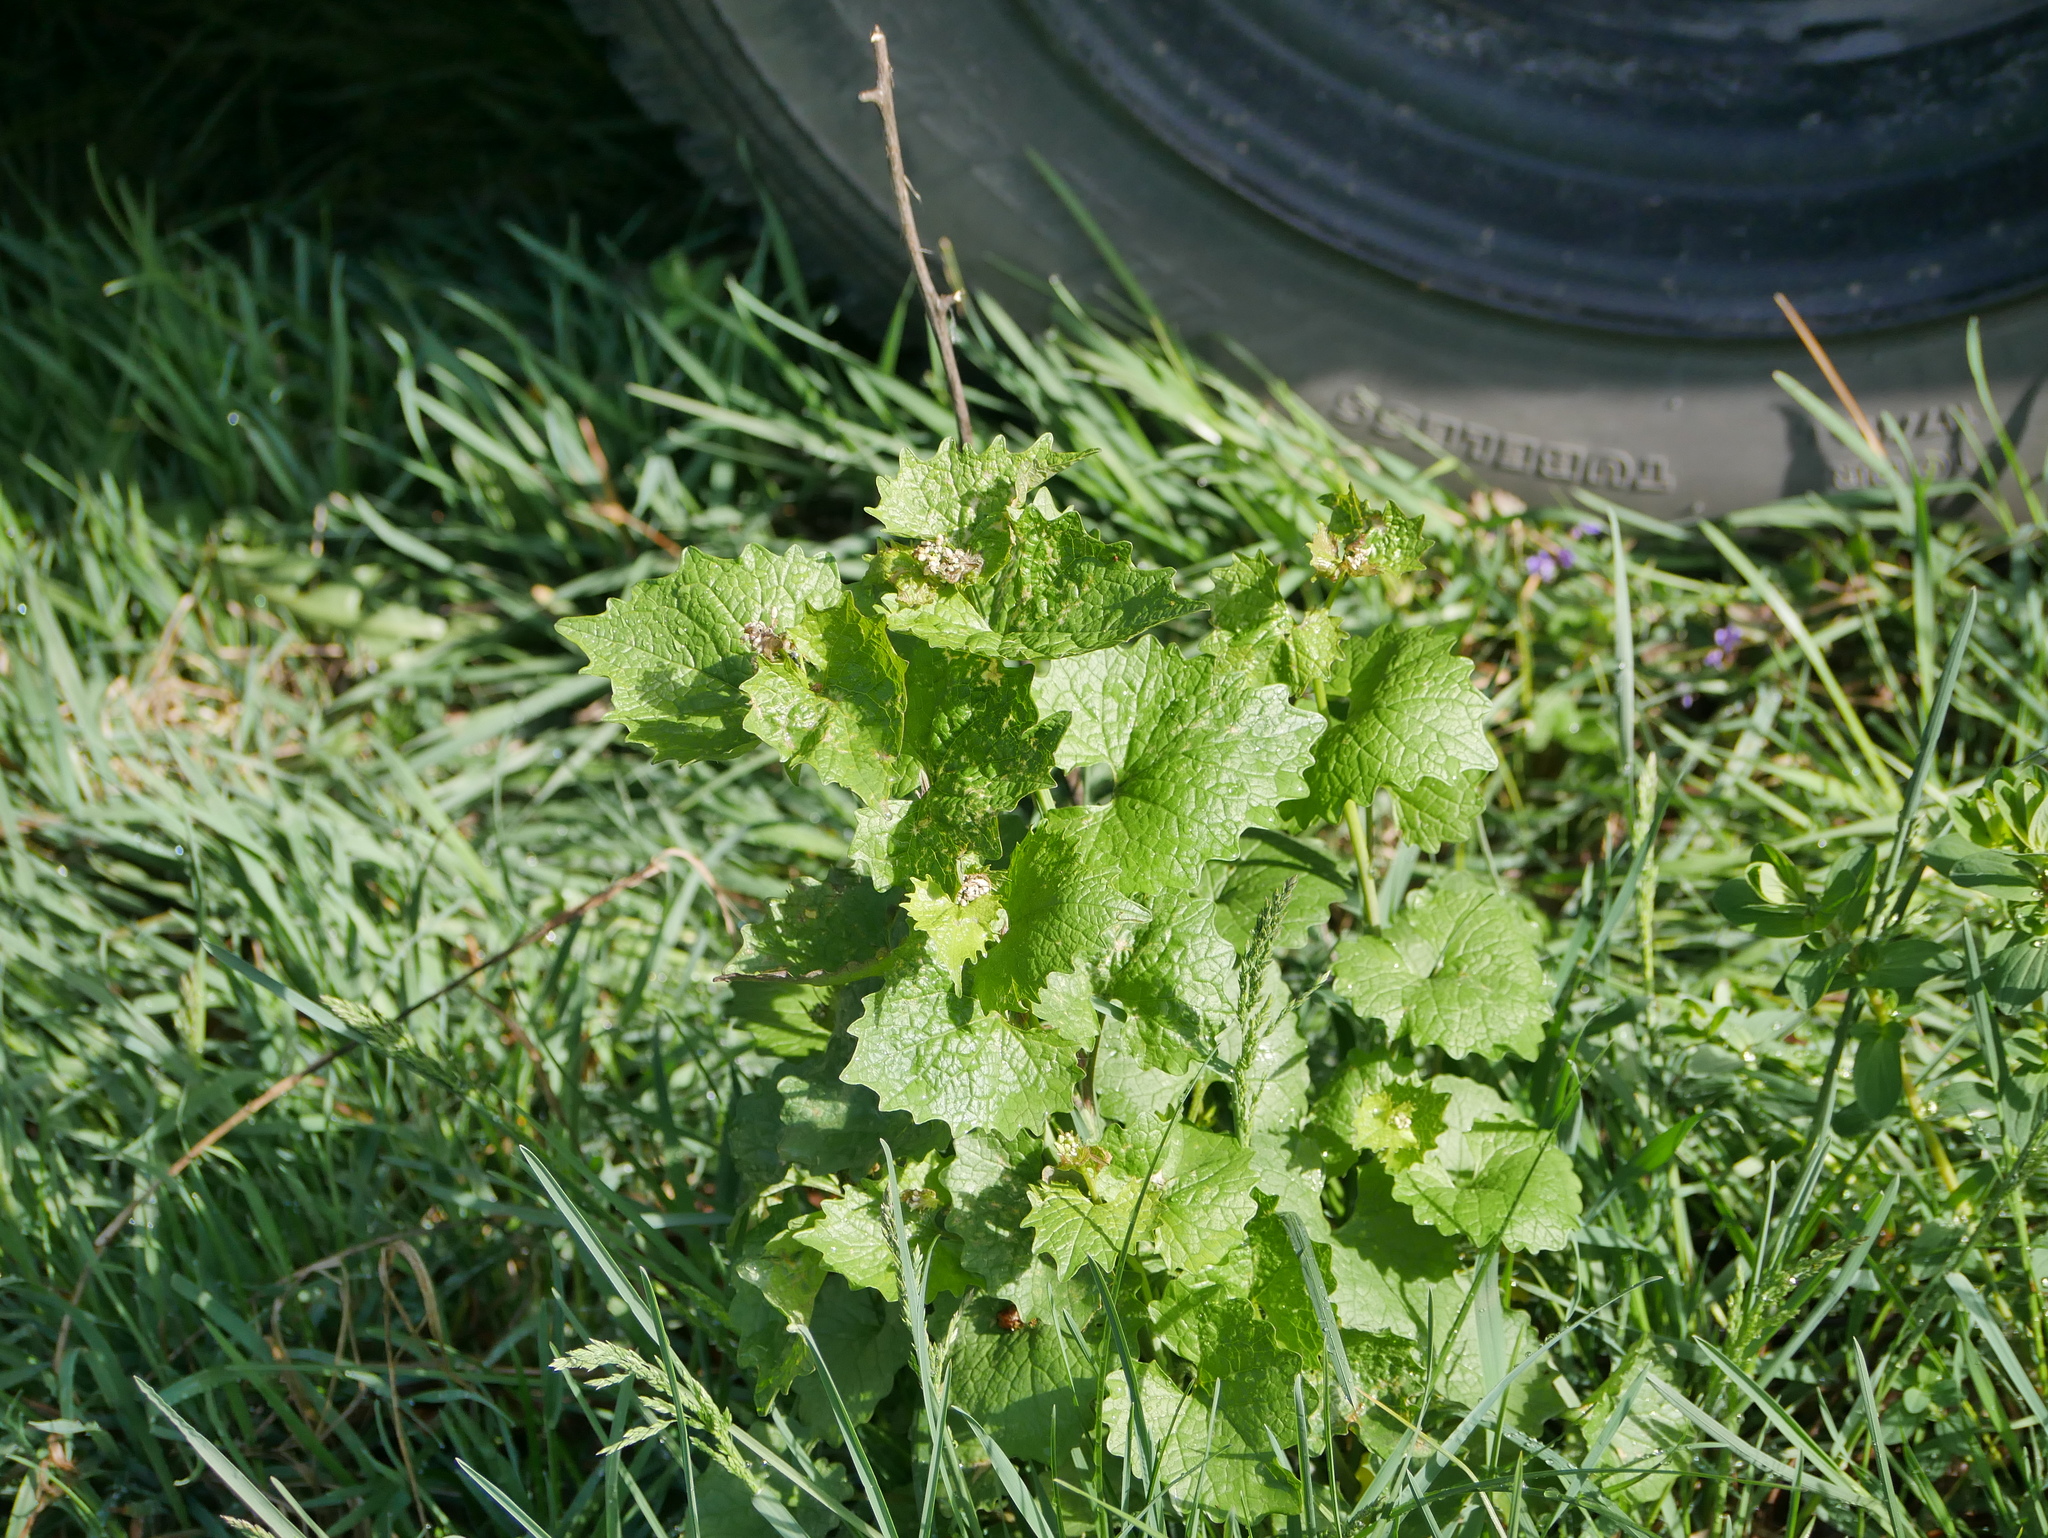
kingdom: Plantae
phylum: Tracheophyta
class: Magnoliopsida
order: Brassicales
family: Brassicaceae
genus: Alliaria
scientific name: Alliaria petiolata
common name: Garlic mustard
